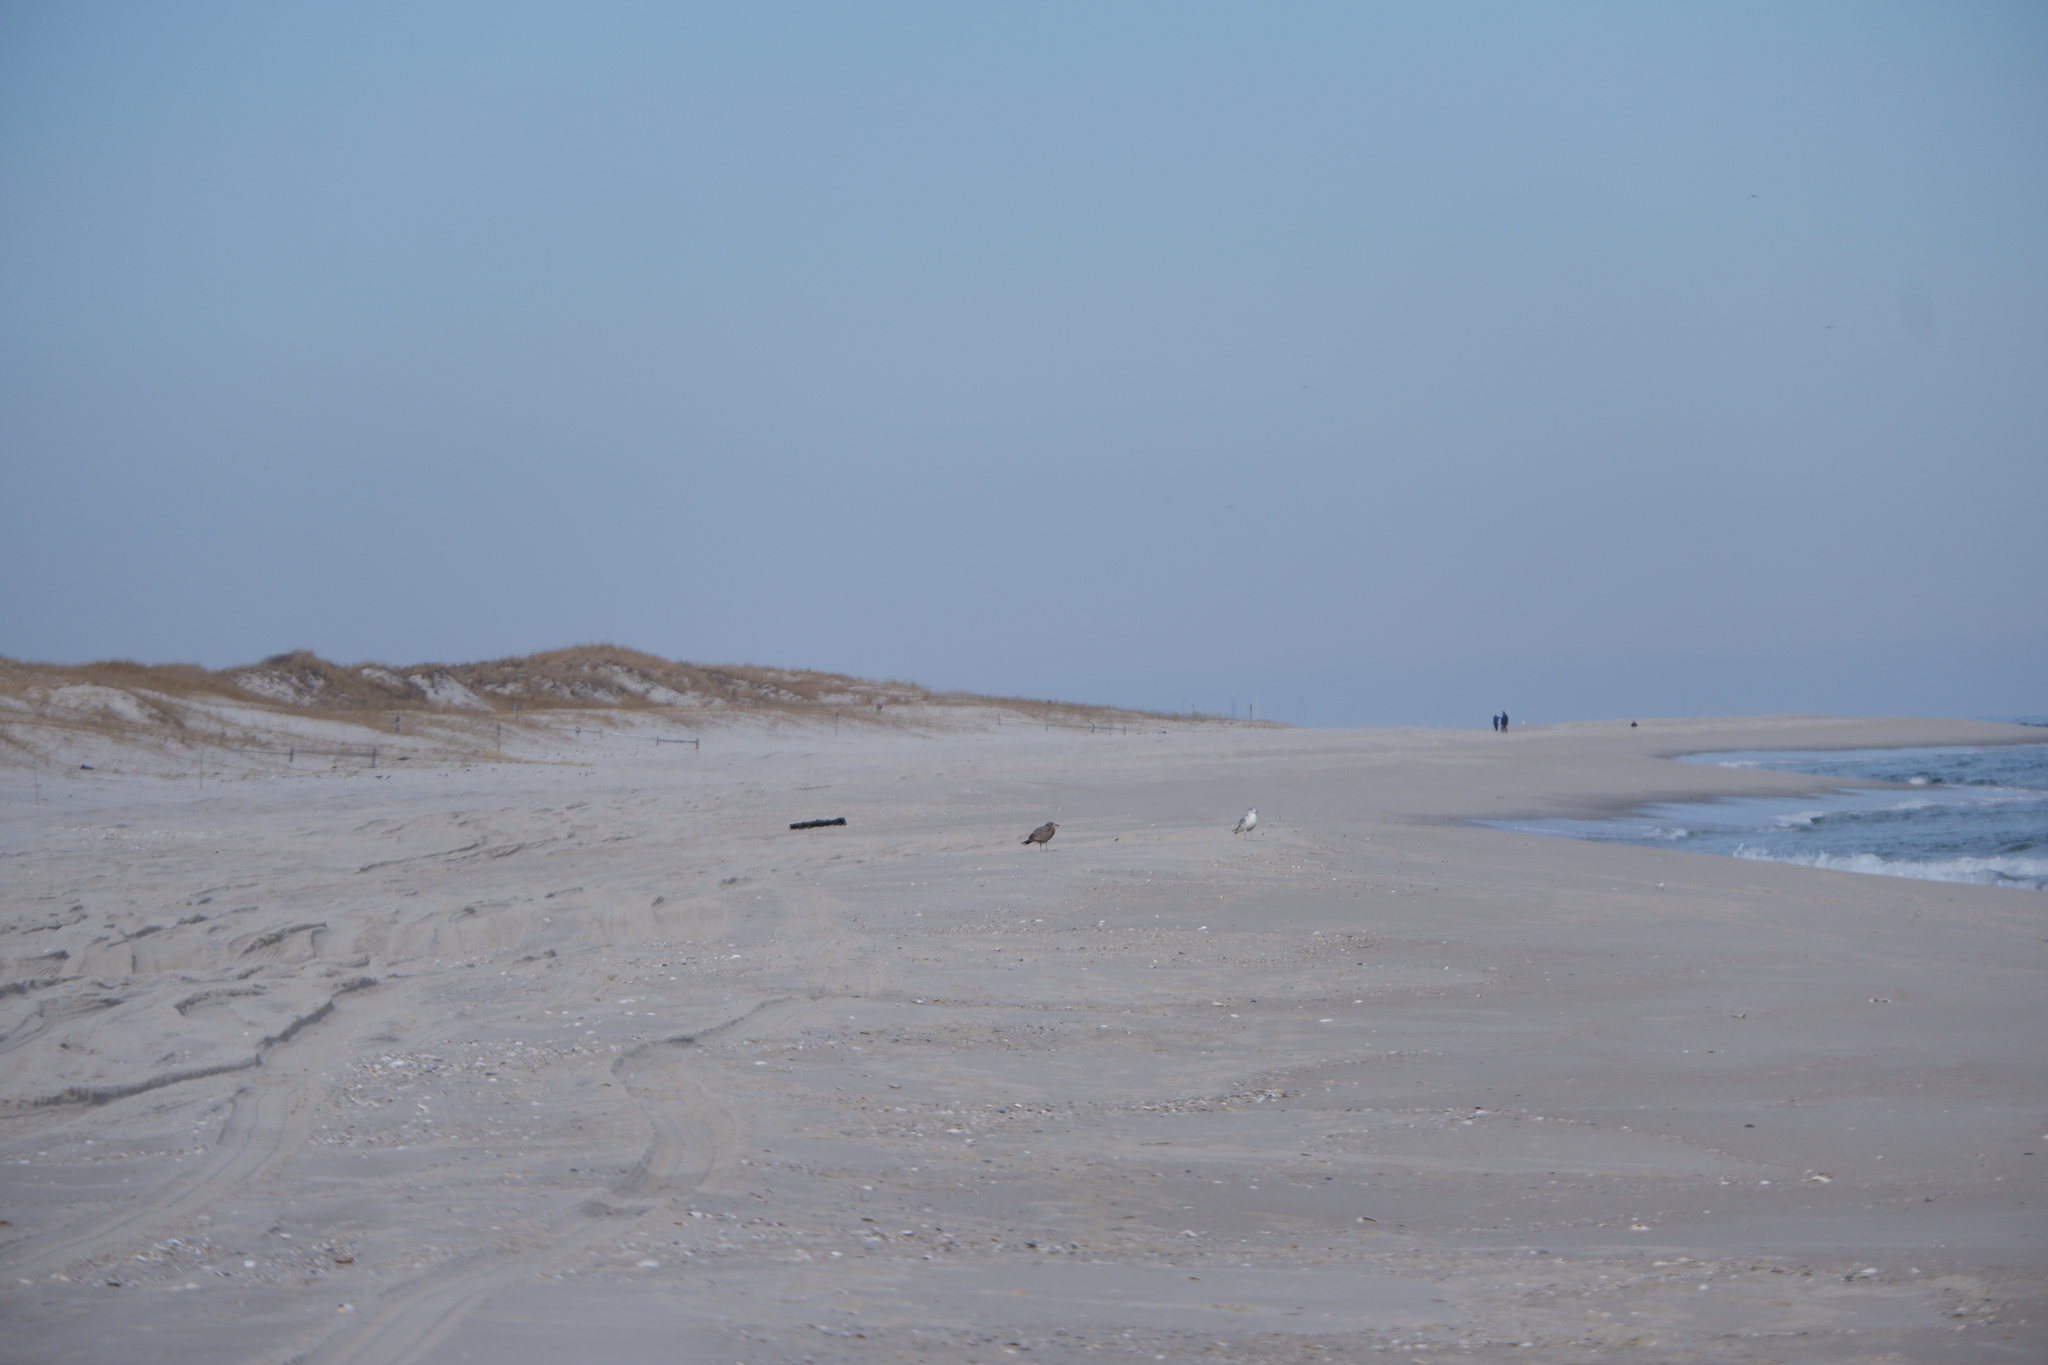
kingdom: Animalia
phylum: Chordata
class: Aves
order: Charadriiformes
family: Laridae
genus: Larus
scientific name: Larus smithsonianus
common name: American herring gull
